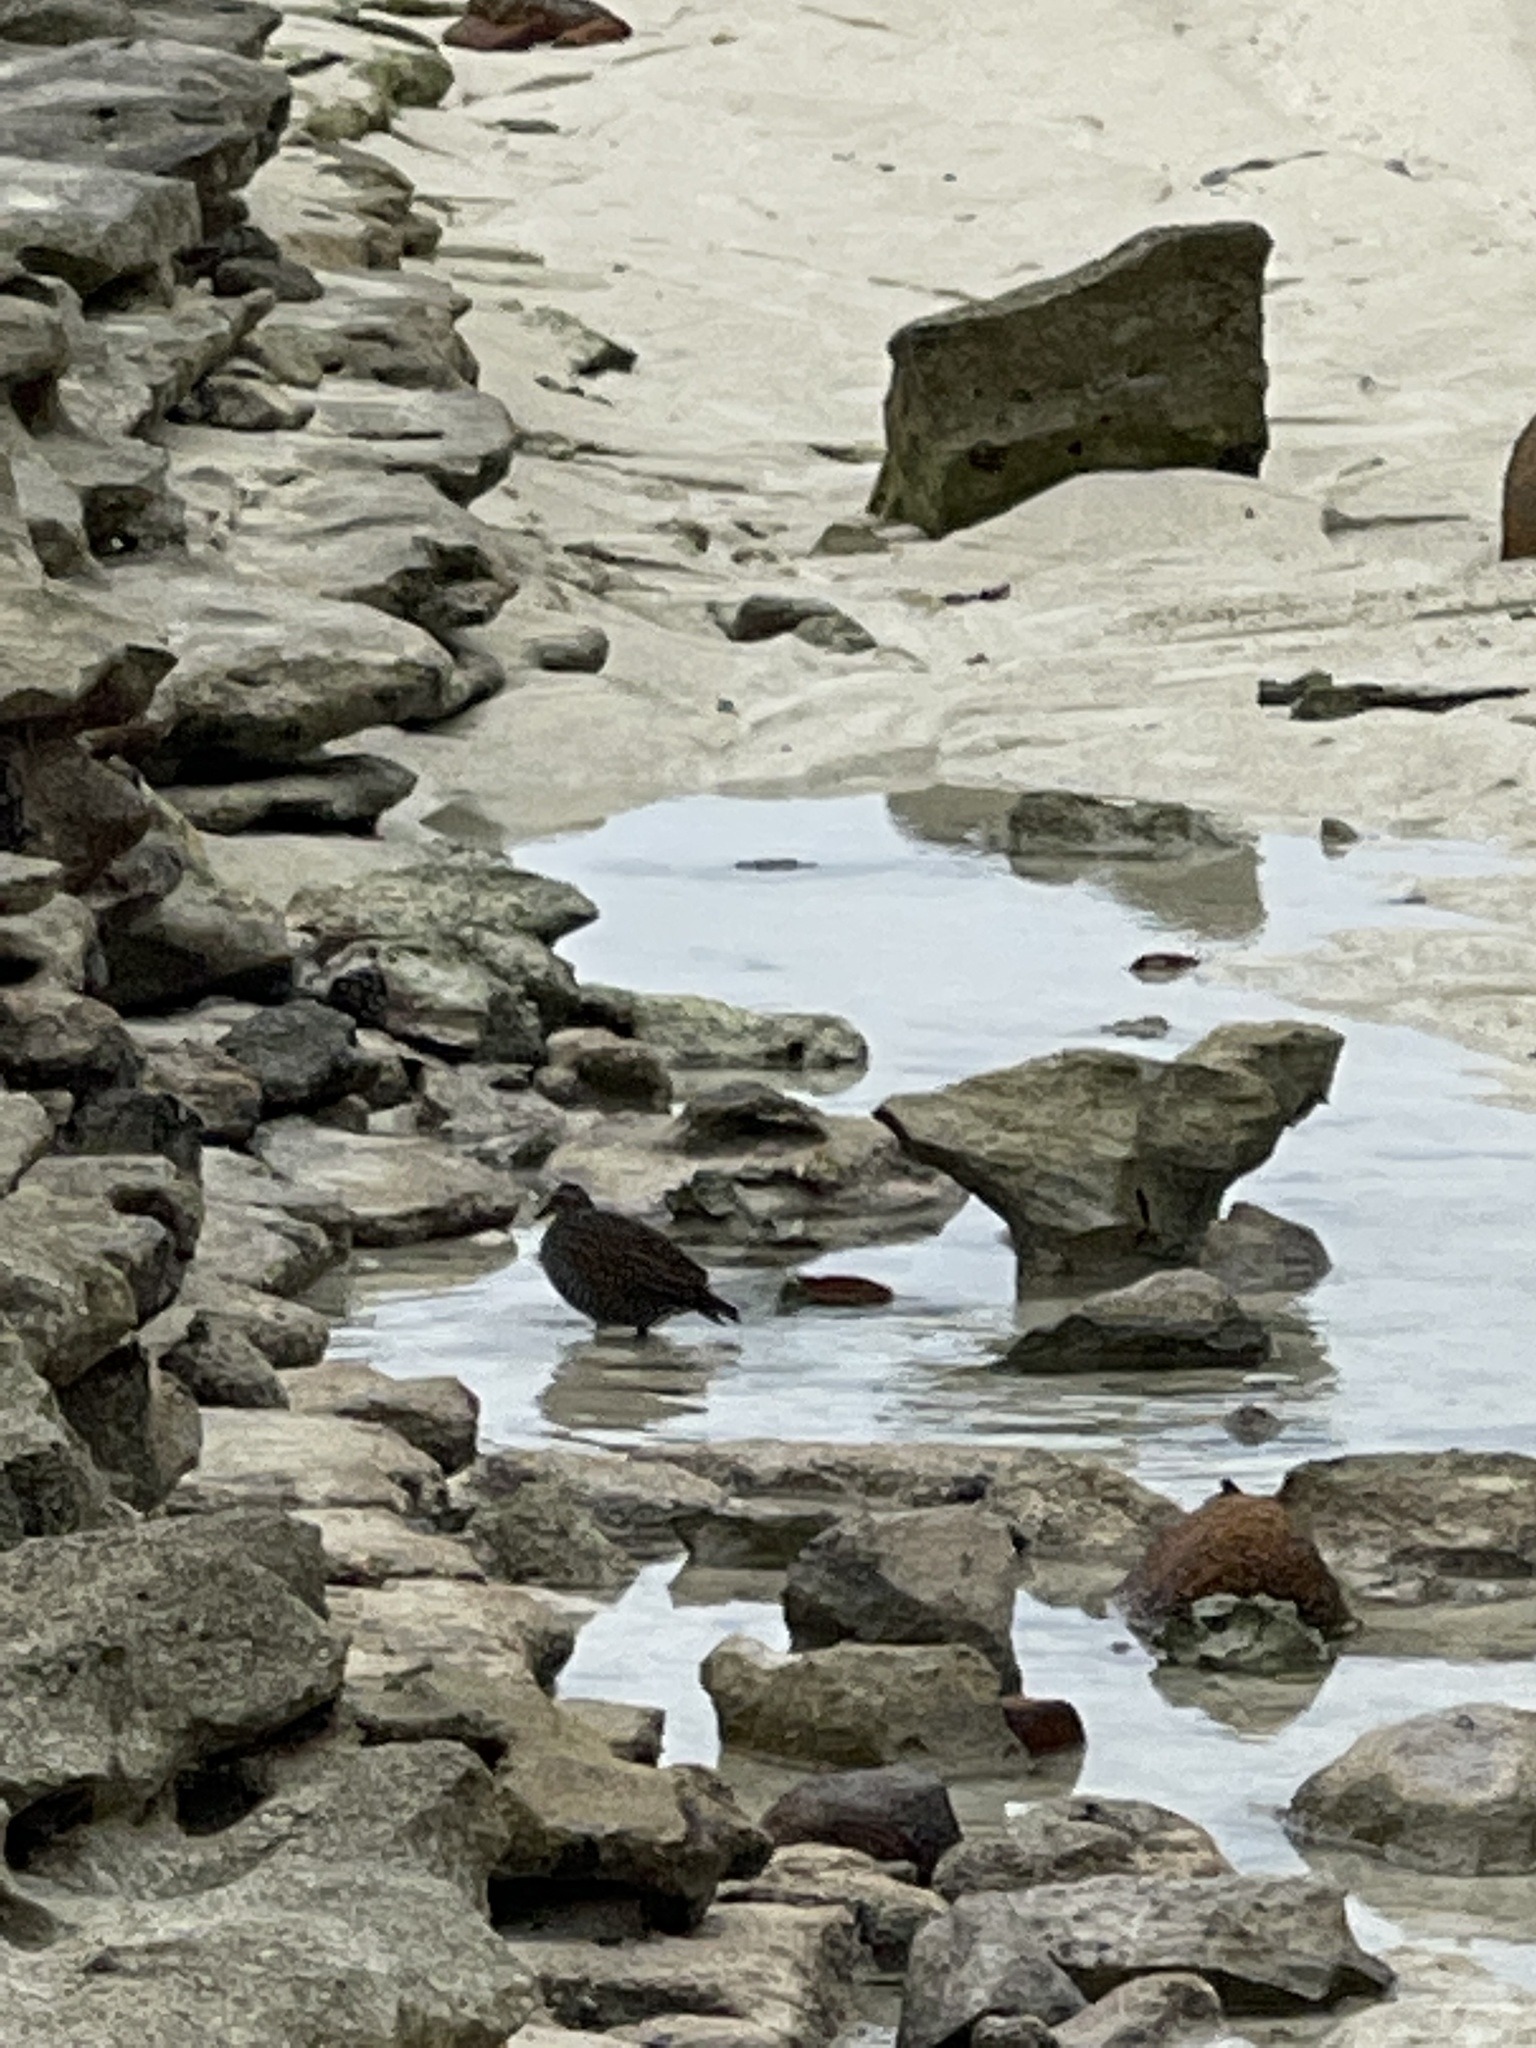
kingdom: Animalia
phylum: Chordata
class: Aves
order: Gruiformes
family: Rallidae
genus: Gallirallus
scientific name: Gallirallus philippensis
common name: Buff-banded rail
